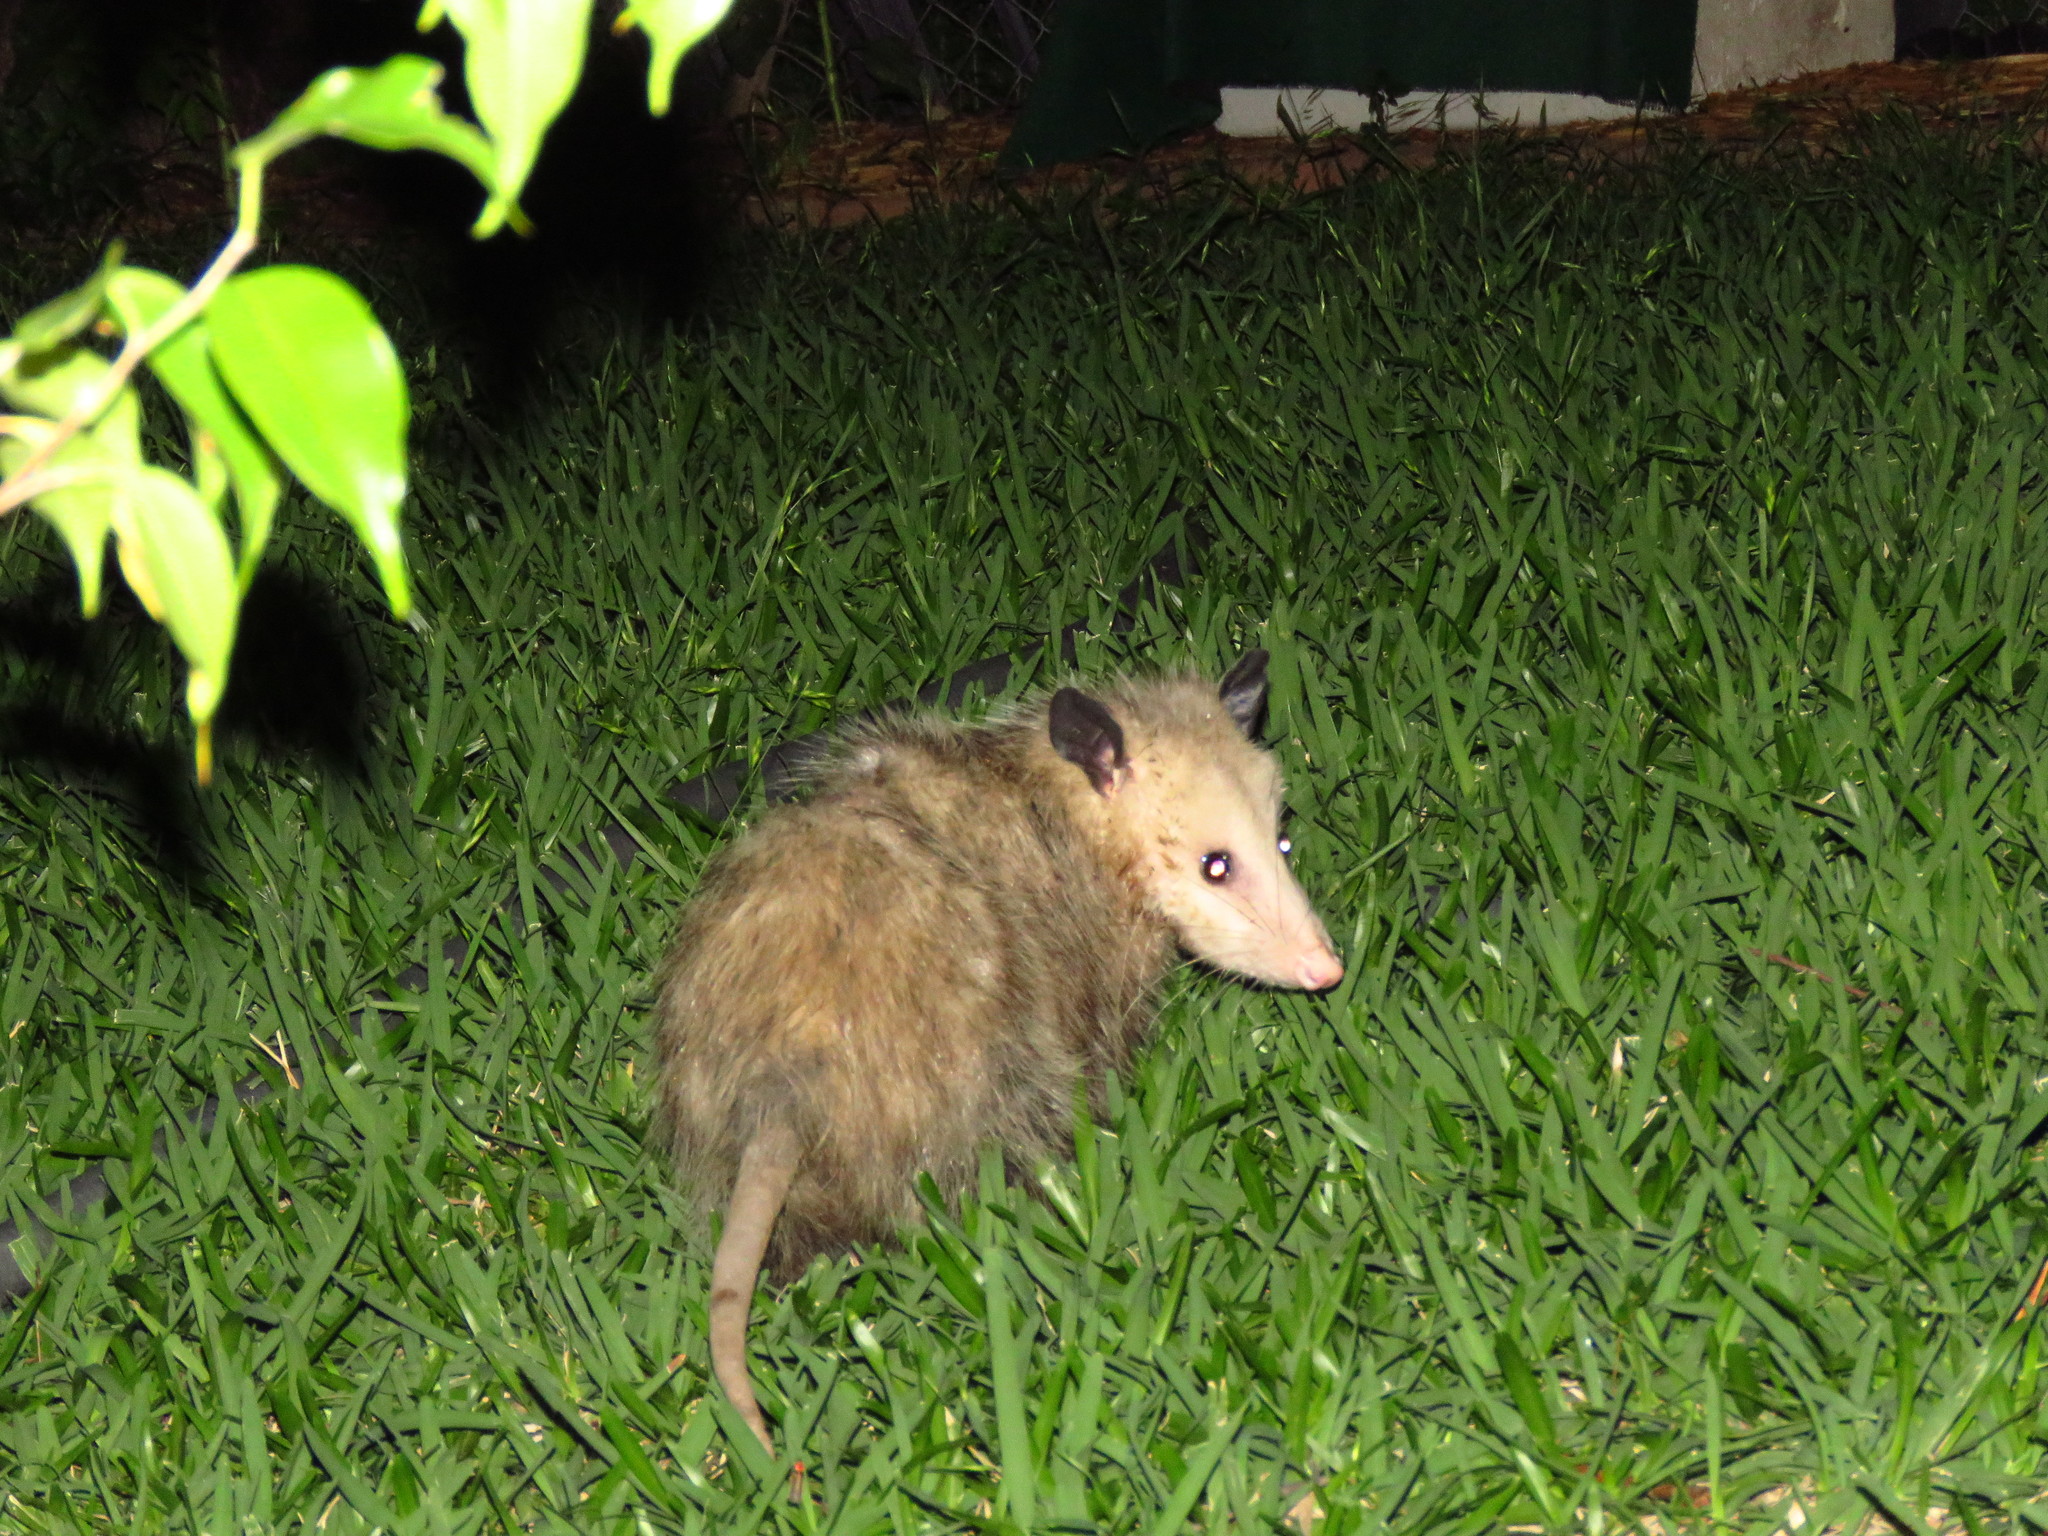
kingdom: Animalia
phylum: Chordata
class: Mammalia
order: Didelphimorphia
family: Didelphidae
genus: Didelphis
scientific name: Didelphis virginiana
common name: Virginia opossum
